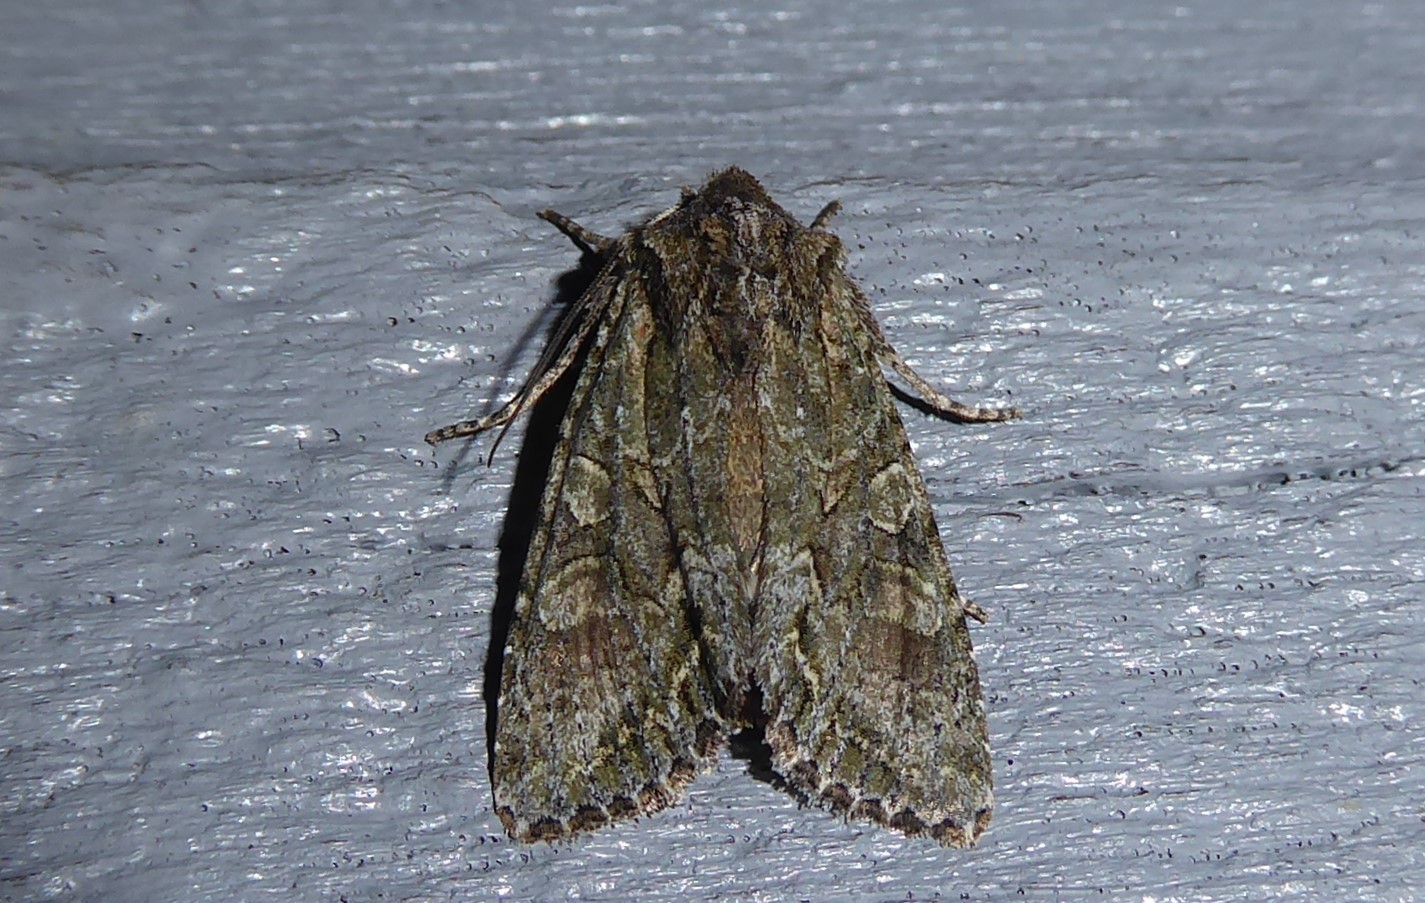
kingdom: Animalia
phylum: Arthropoda
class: Insecta
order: Lepidoptera
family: Noctuidae
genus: Ichneutica
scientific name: Ichneutica mutans
